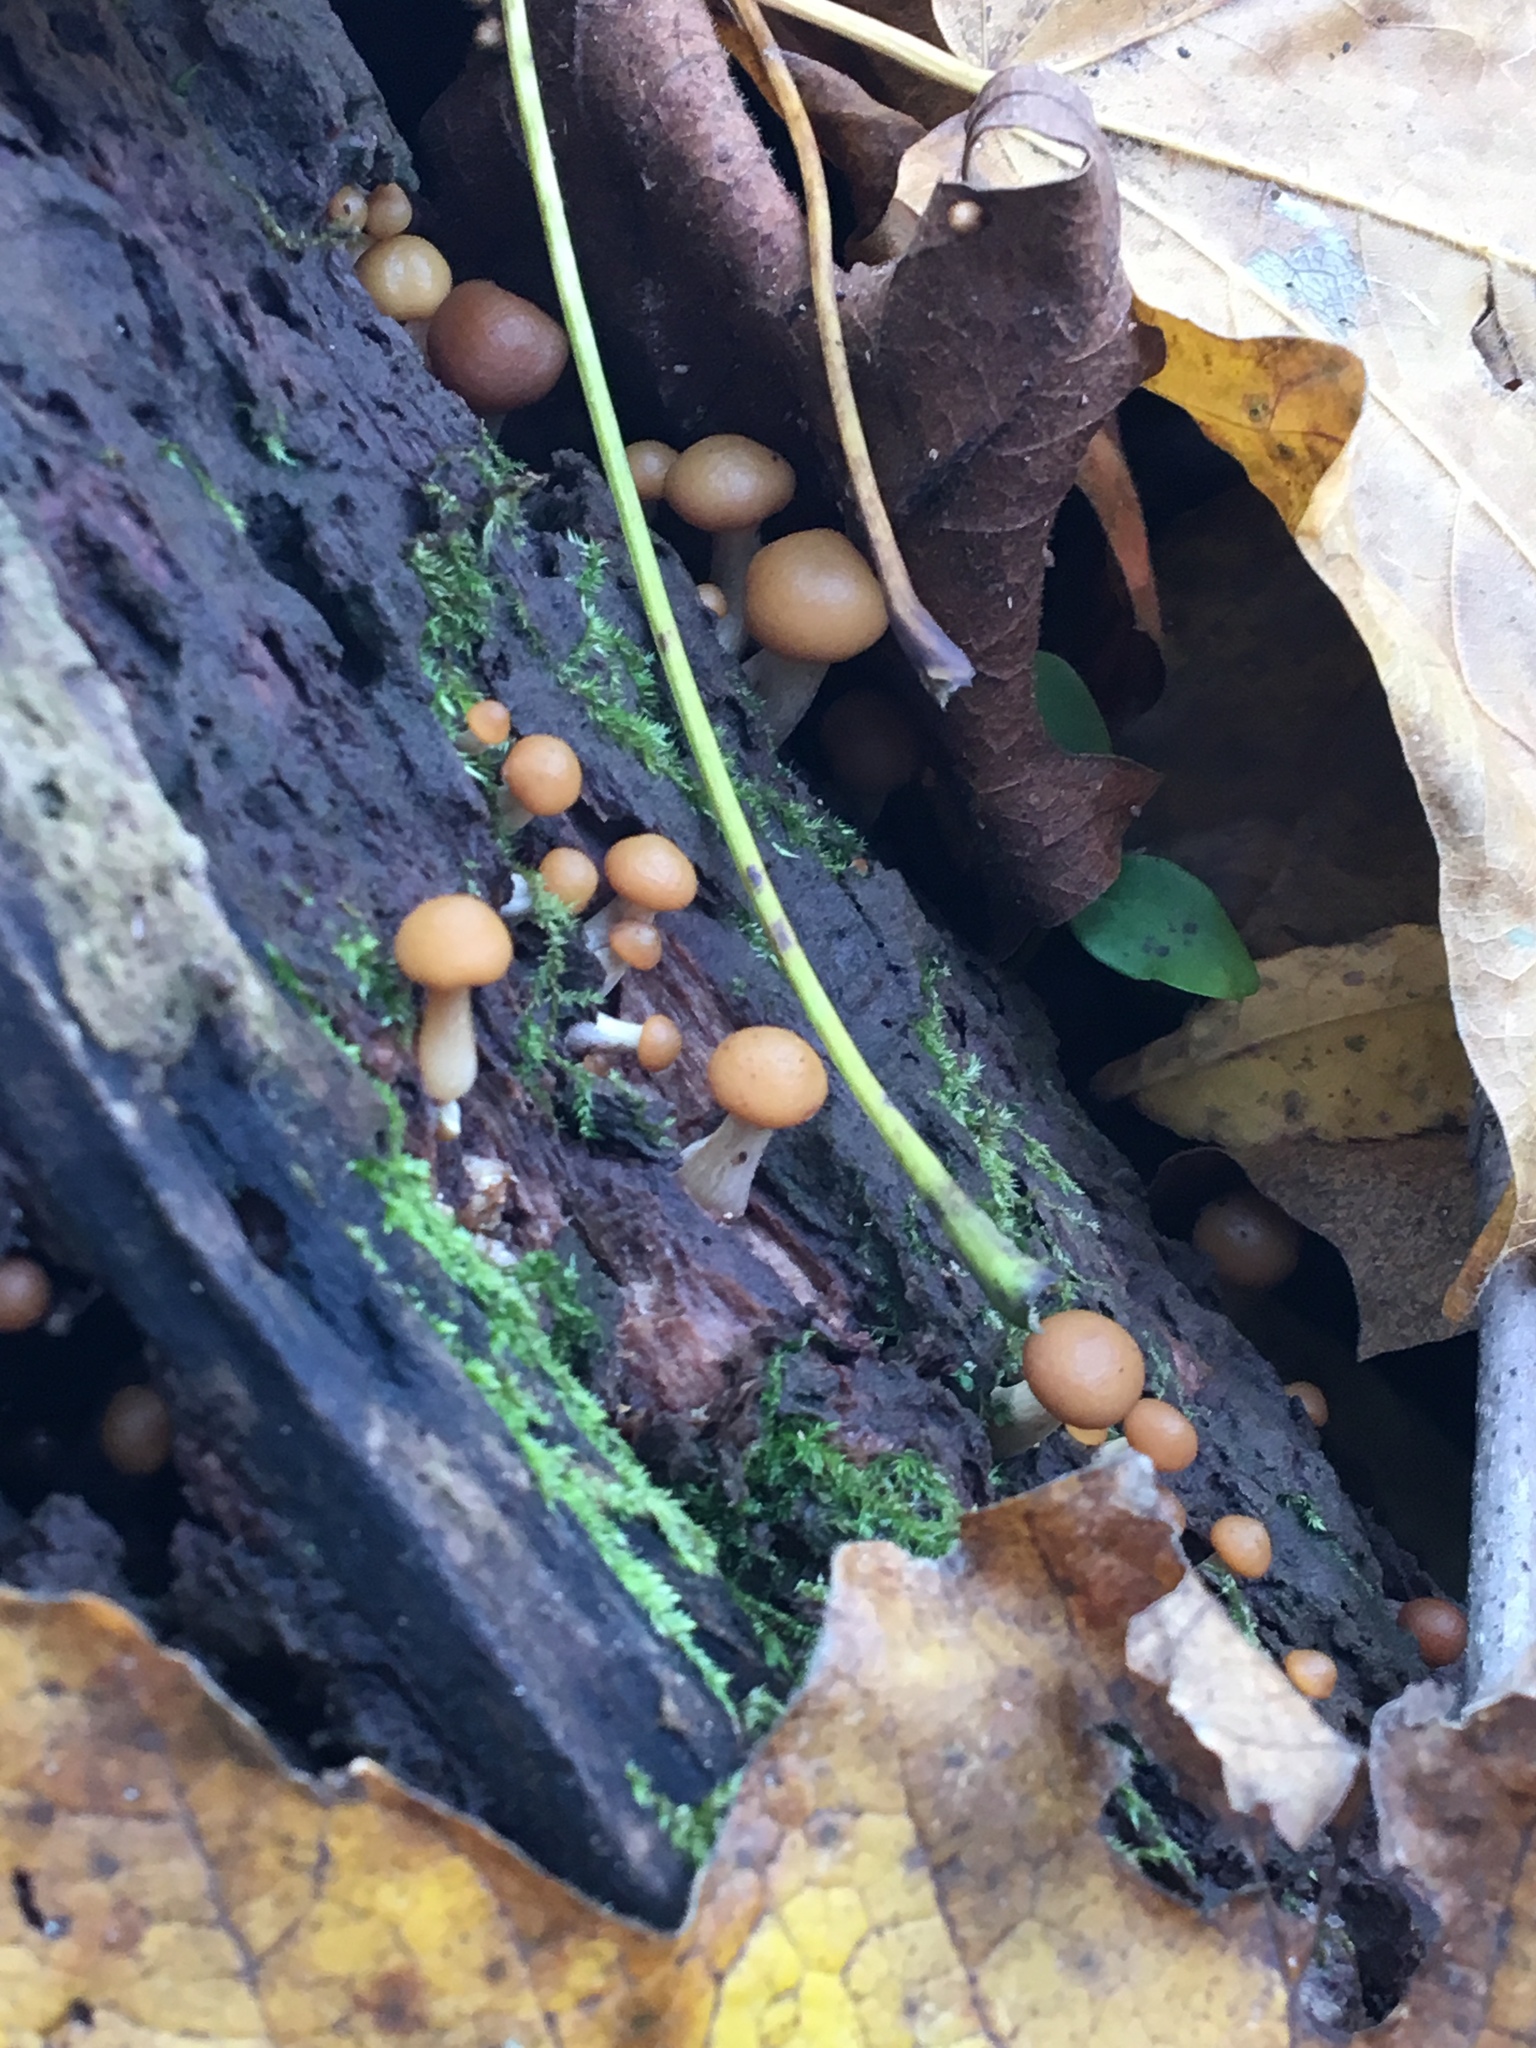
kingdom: Fungi
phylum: Basidiomycota
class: Agaricomycetes
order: Agaricales
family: Hymenogastraceae
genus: Galerina
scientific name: Galerina marginata
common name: Funeral bell
